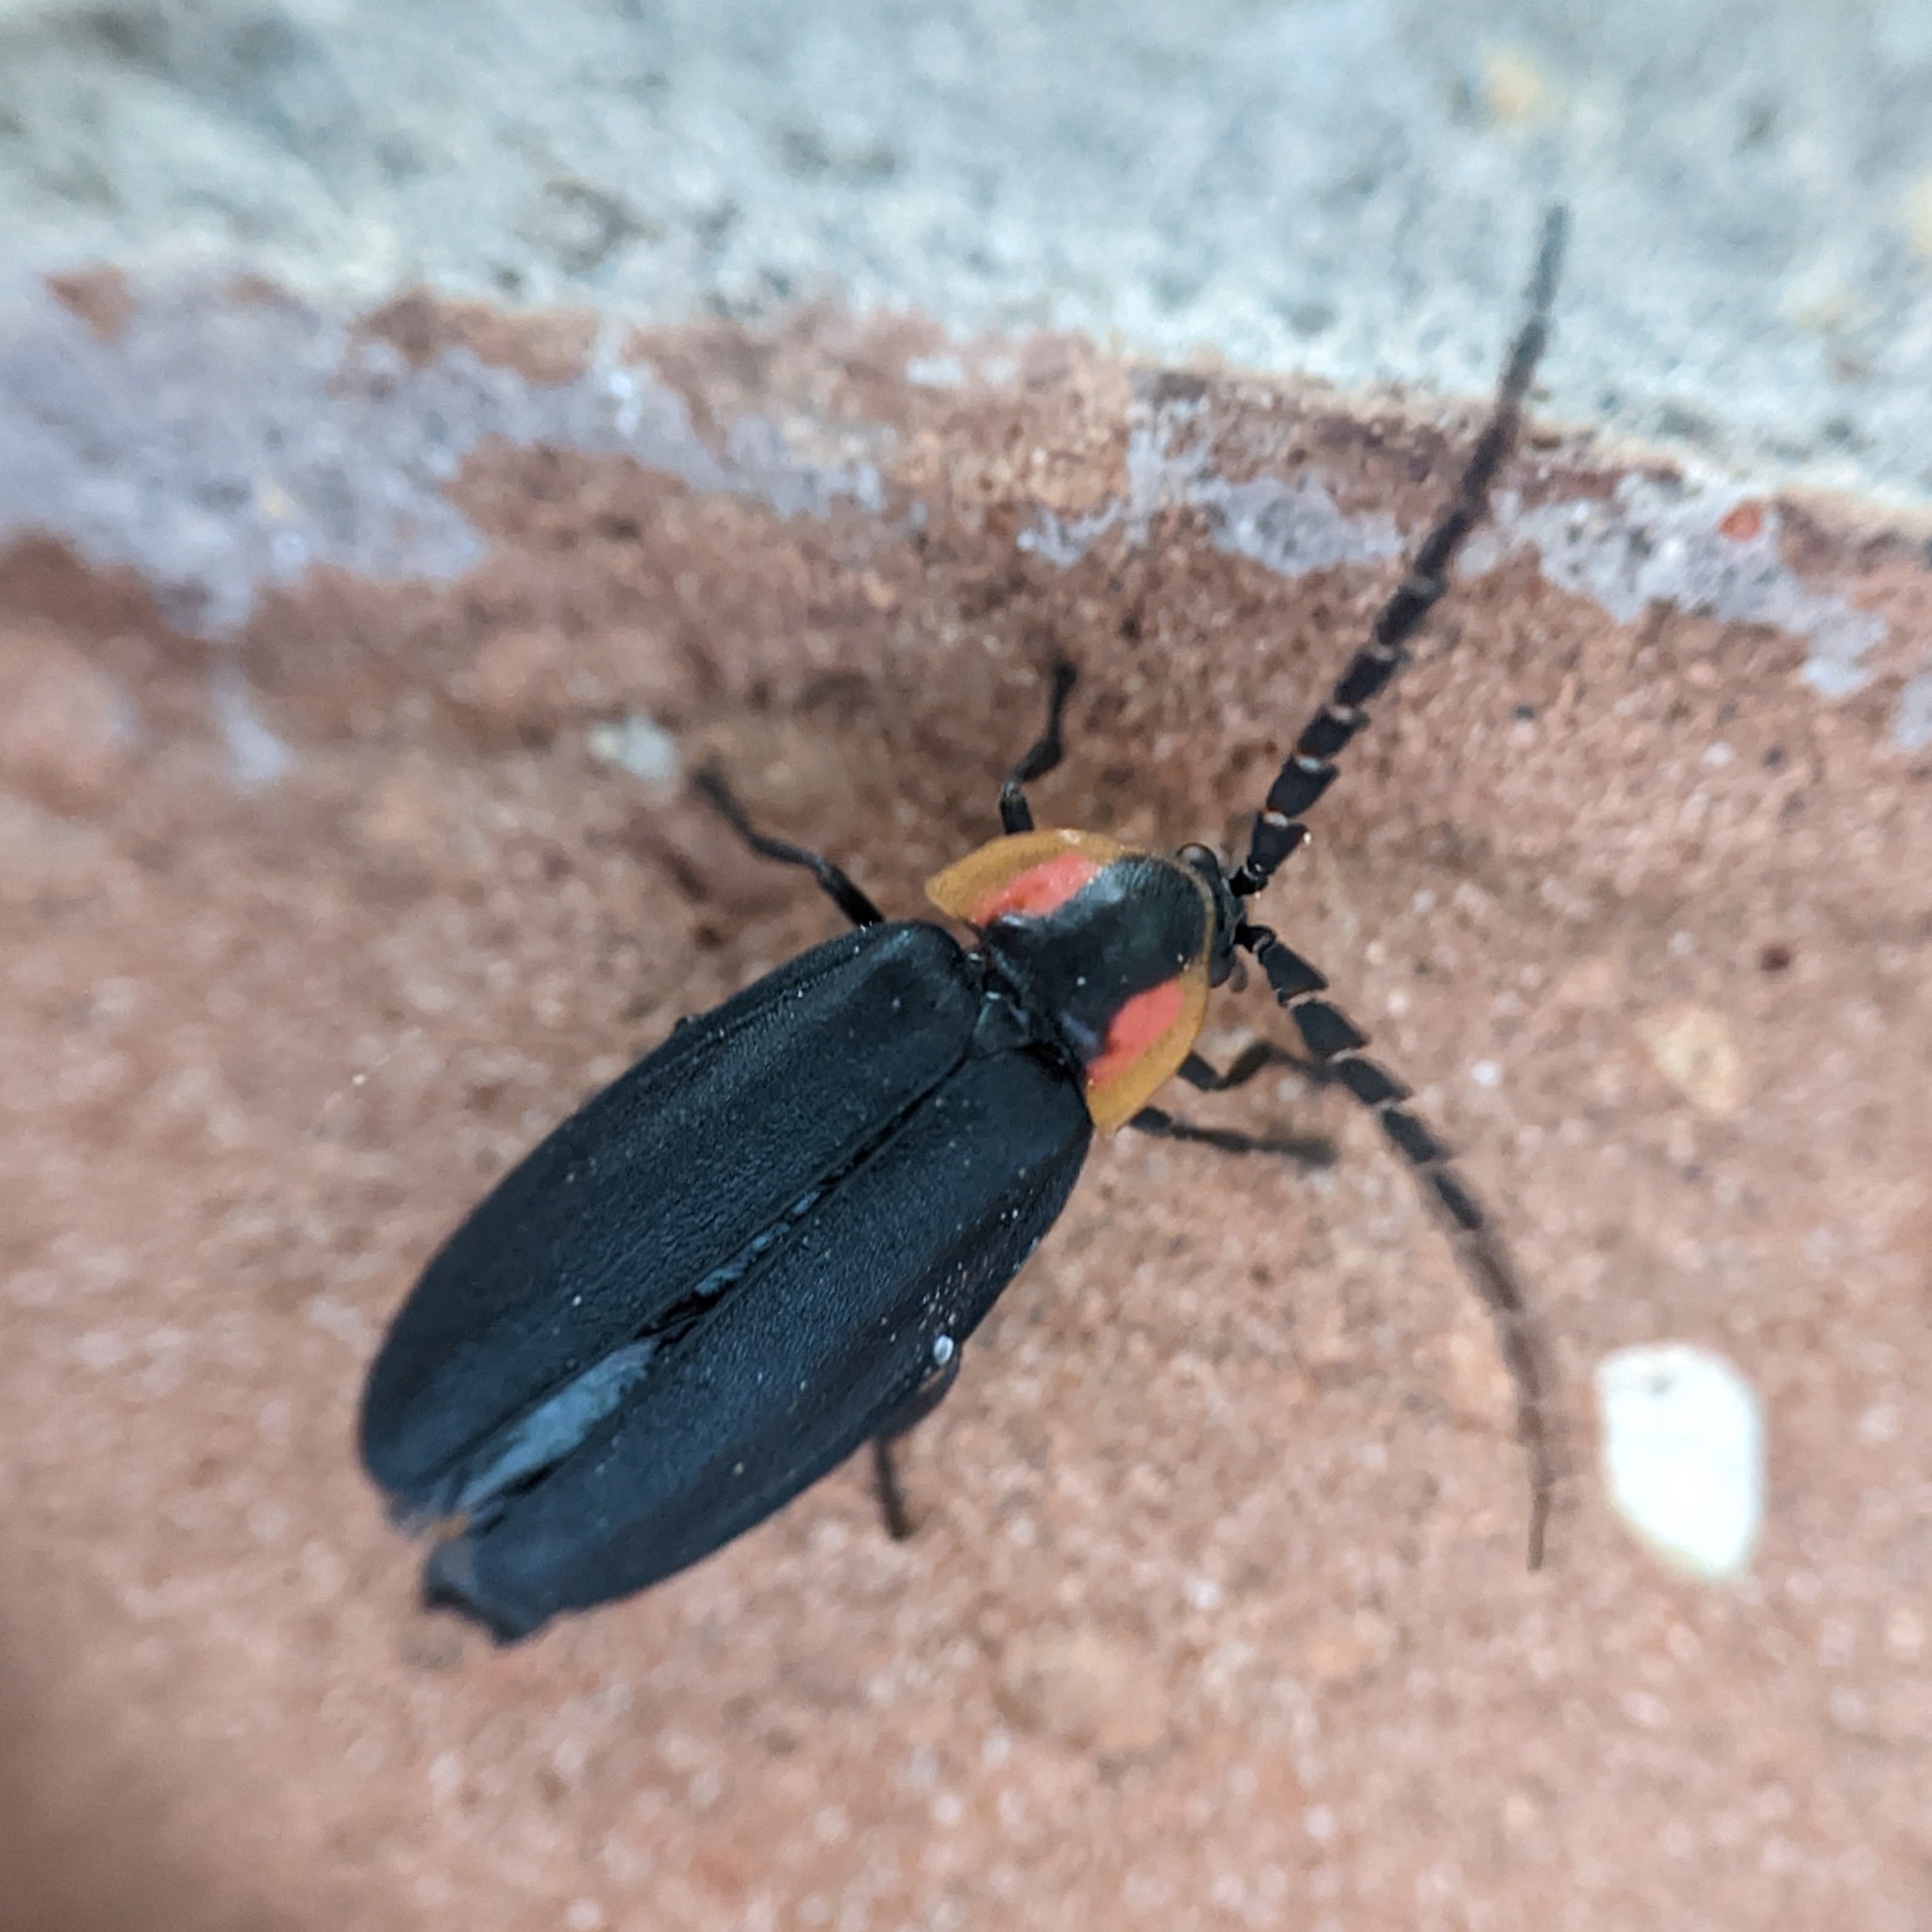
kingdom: Animalia
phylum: Arthropoda
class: Insecta
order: Coleoptera
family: Lampyridae
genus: Lucidota
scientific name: Lucidota atra
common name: Black firefly
